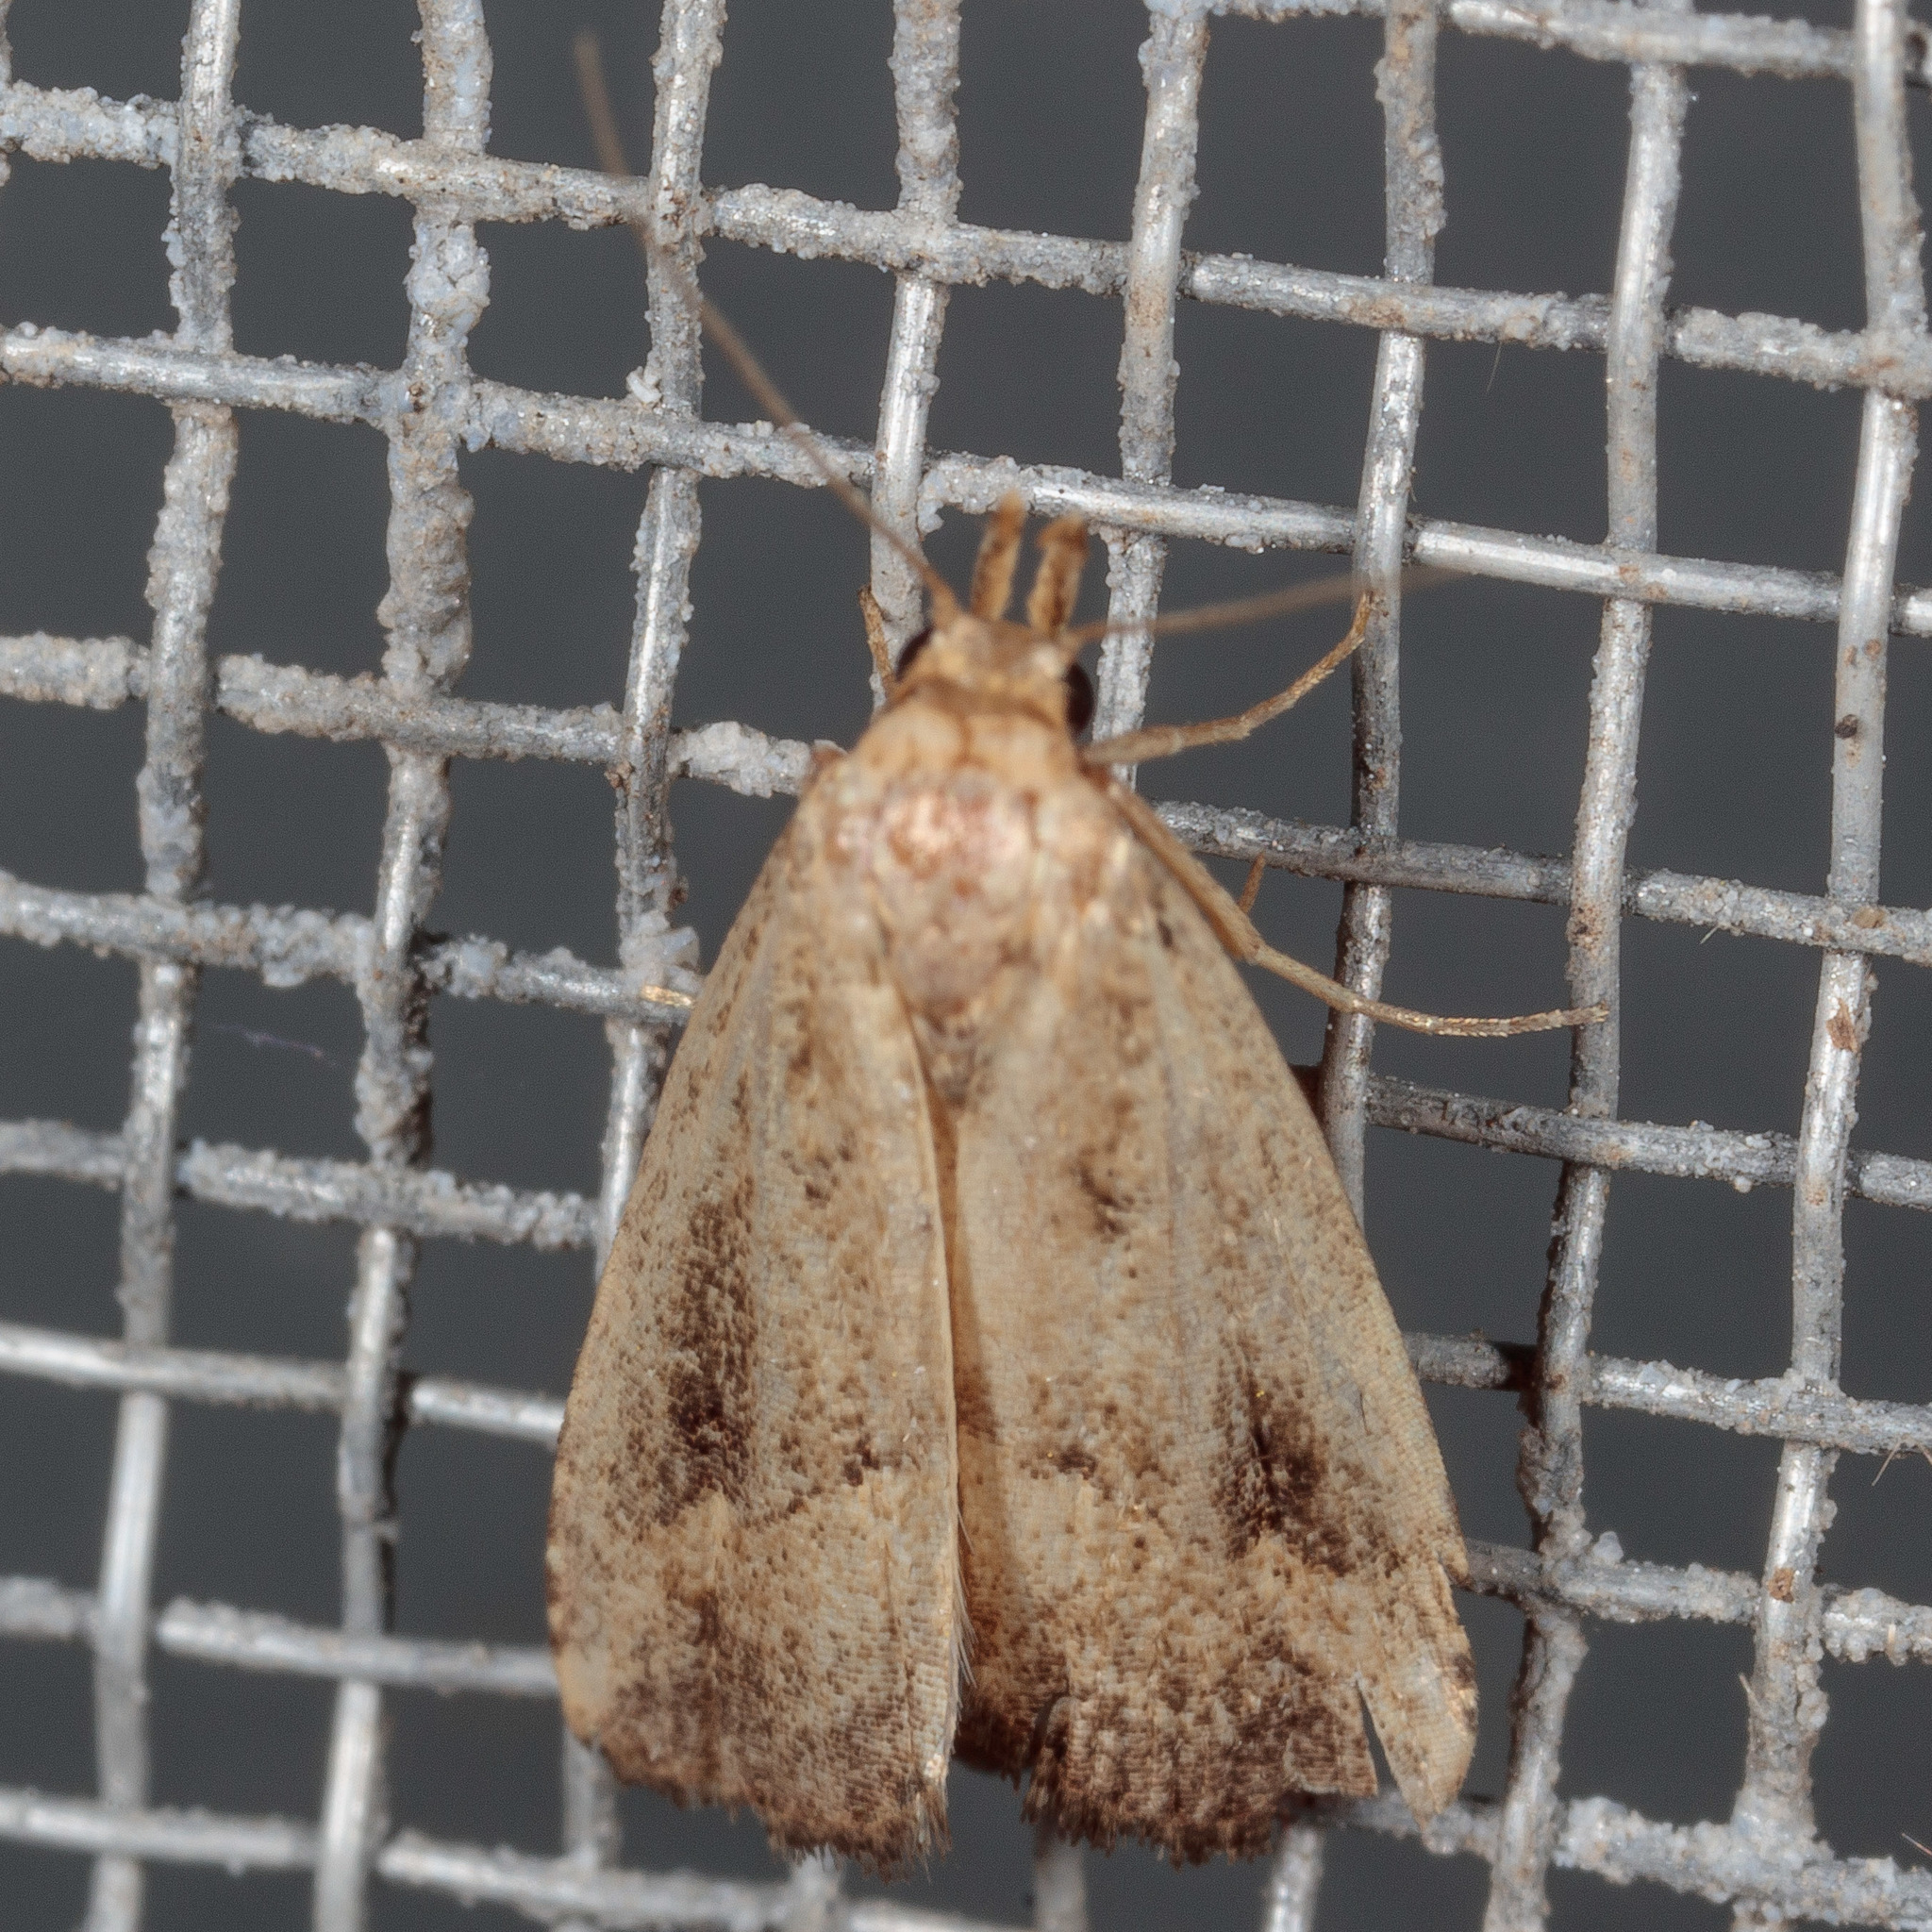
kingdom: Animalia
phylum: Arthropoda
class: Insecta
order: Lepidoptera
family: Erebidae
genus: Schrankia
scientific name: Schrankia
